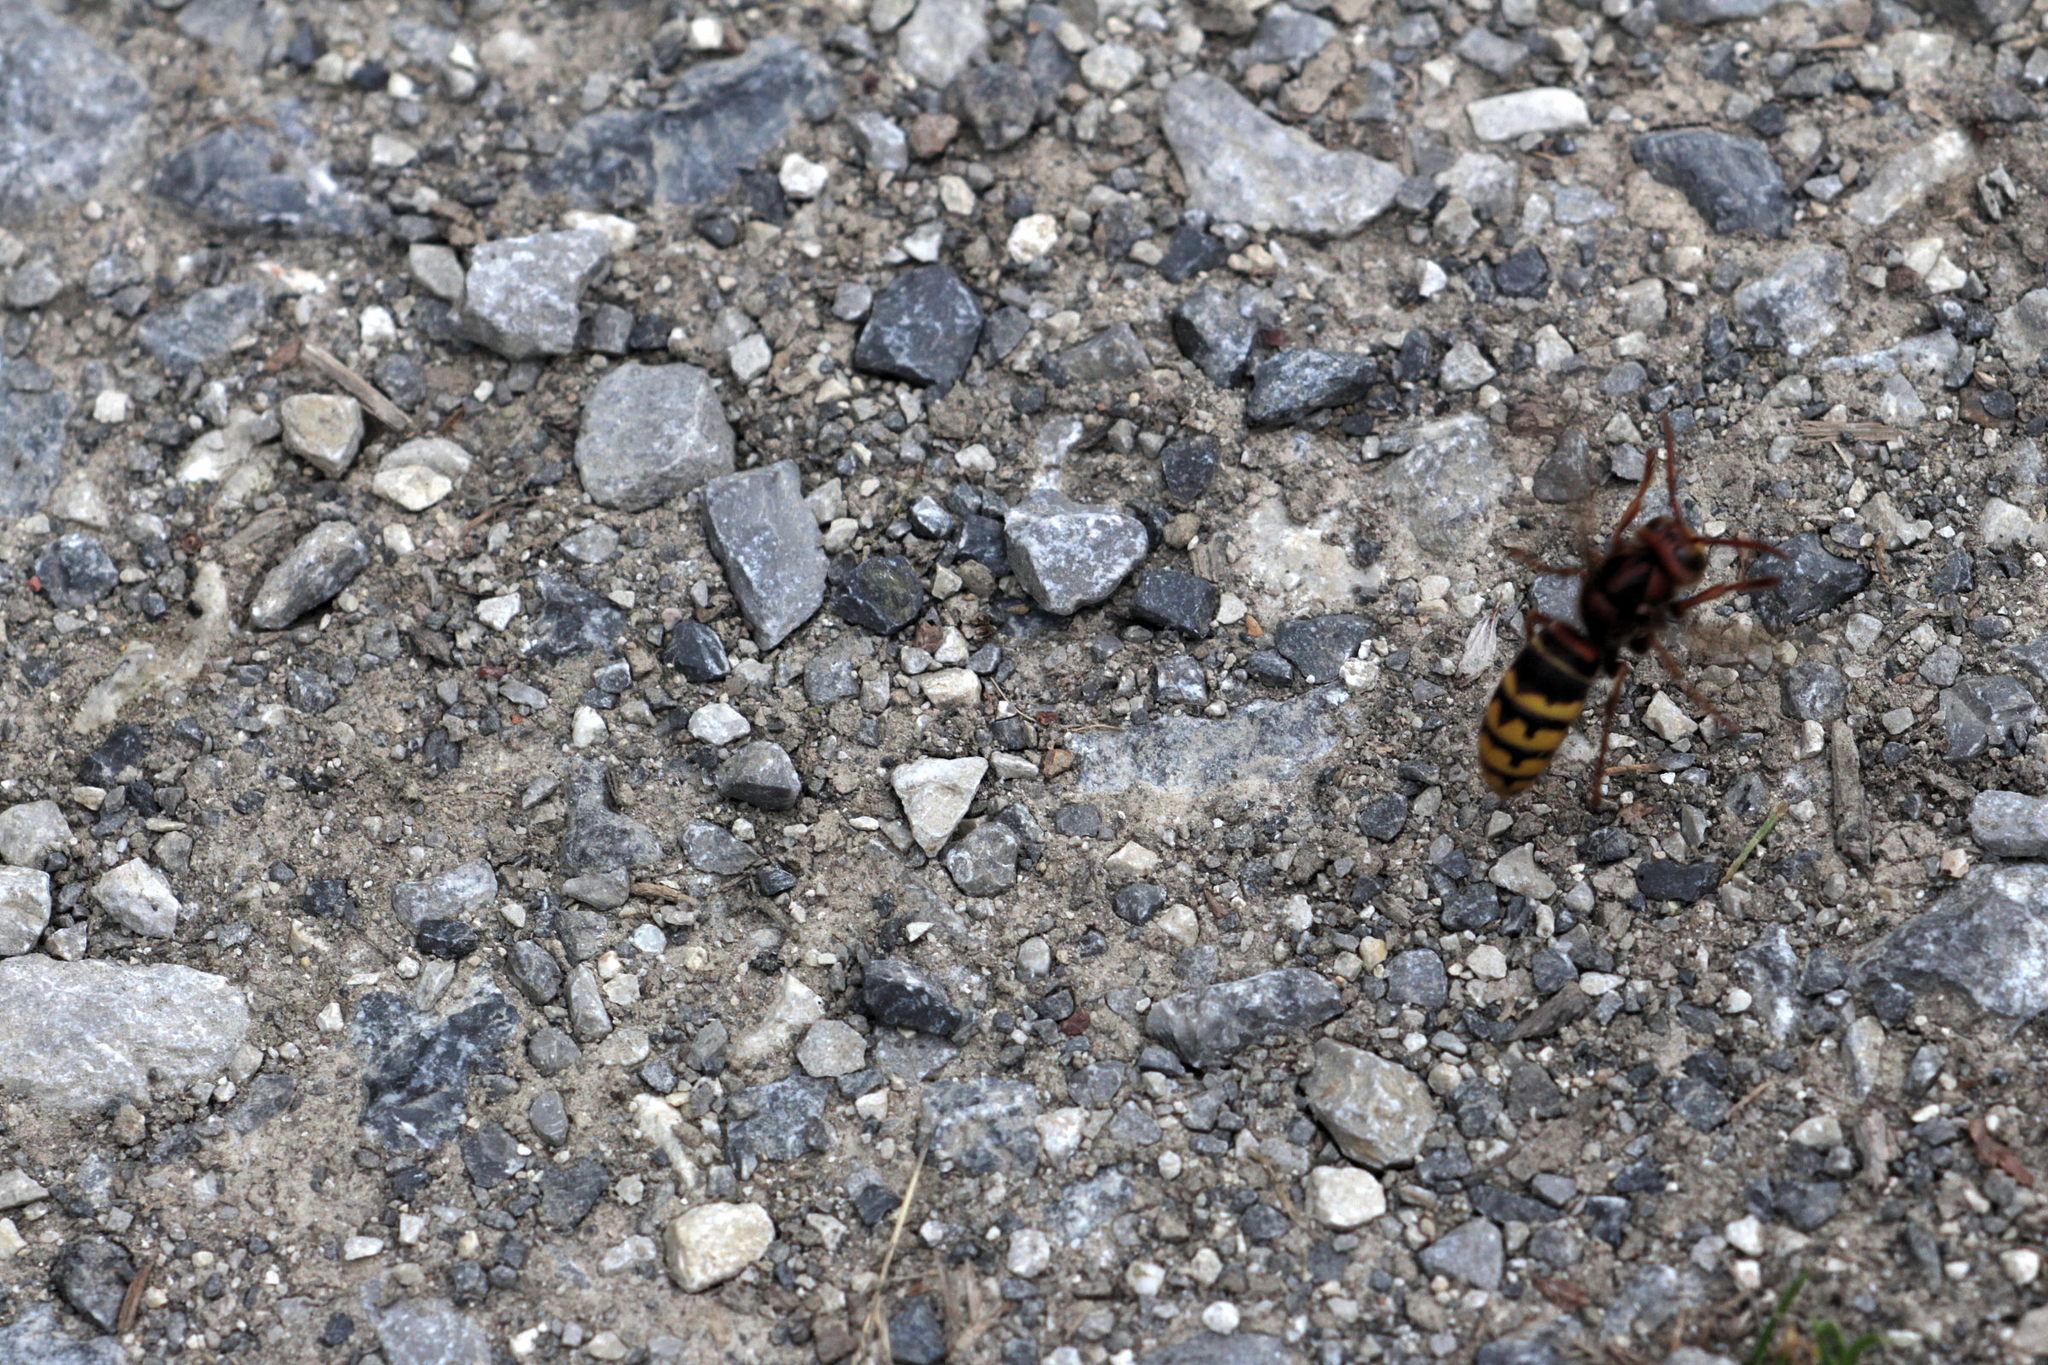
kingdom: Animalia
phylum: Arthropoda
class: Insecta
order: Hymenoptera
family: Vespidae
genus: Vespa
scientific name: Vespa crabro
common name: Hornet
